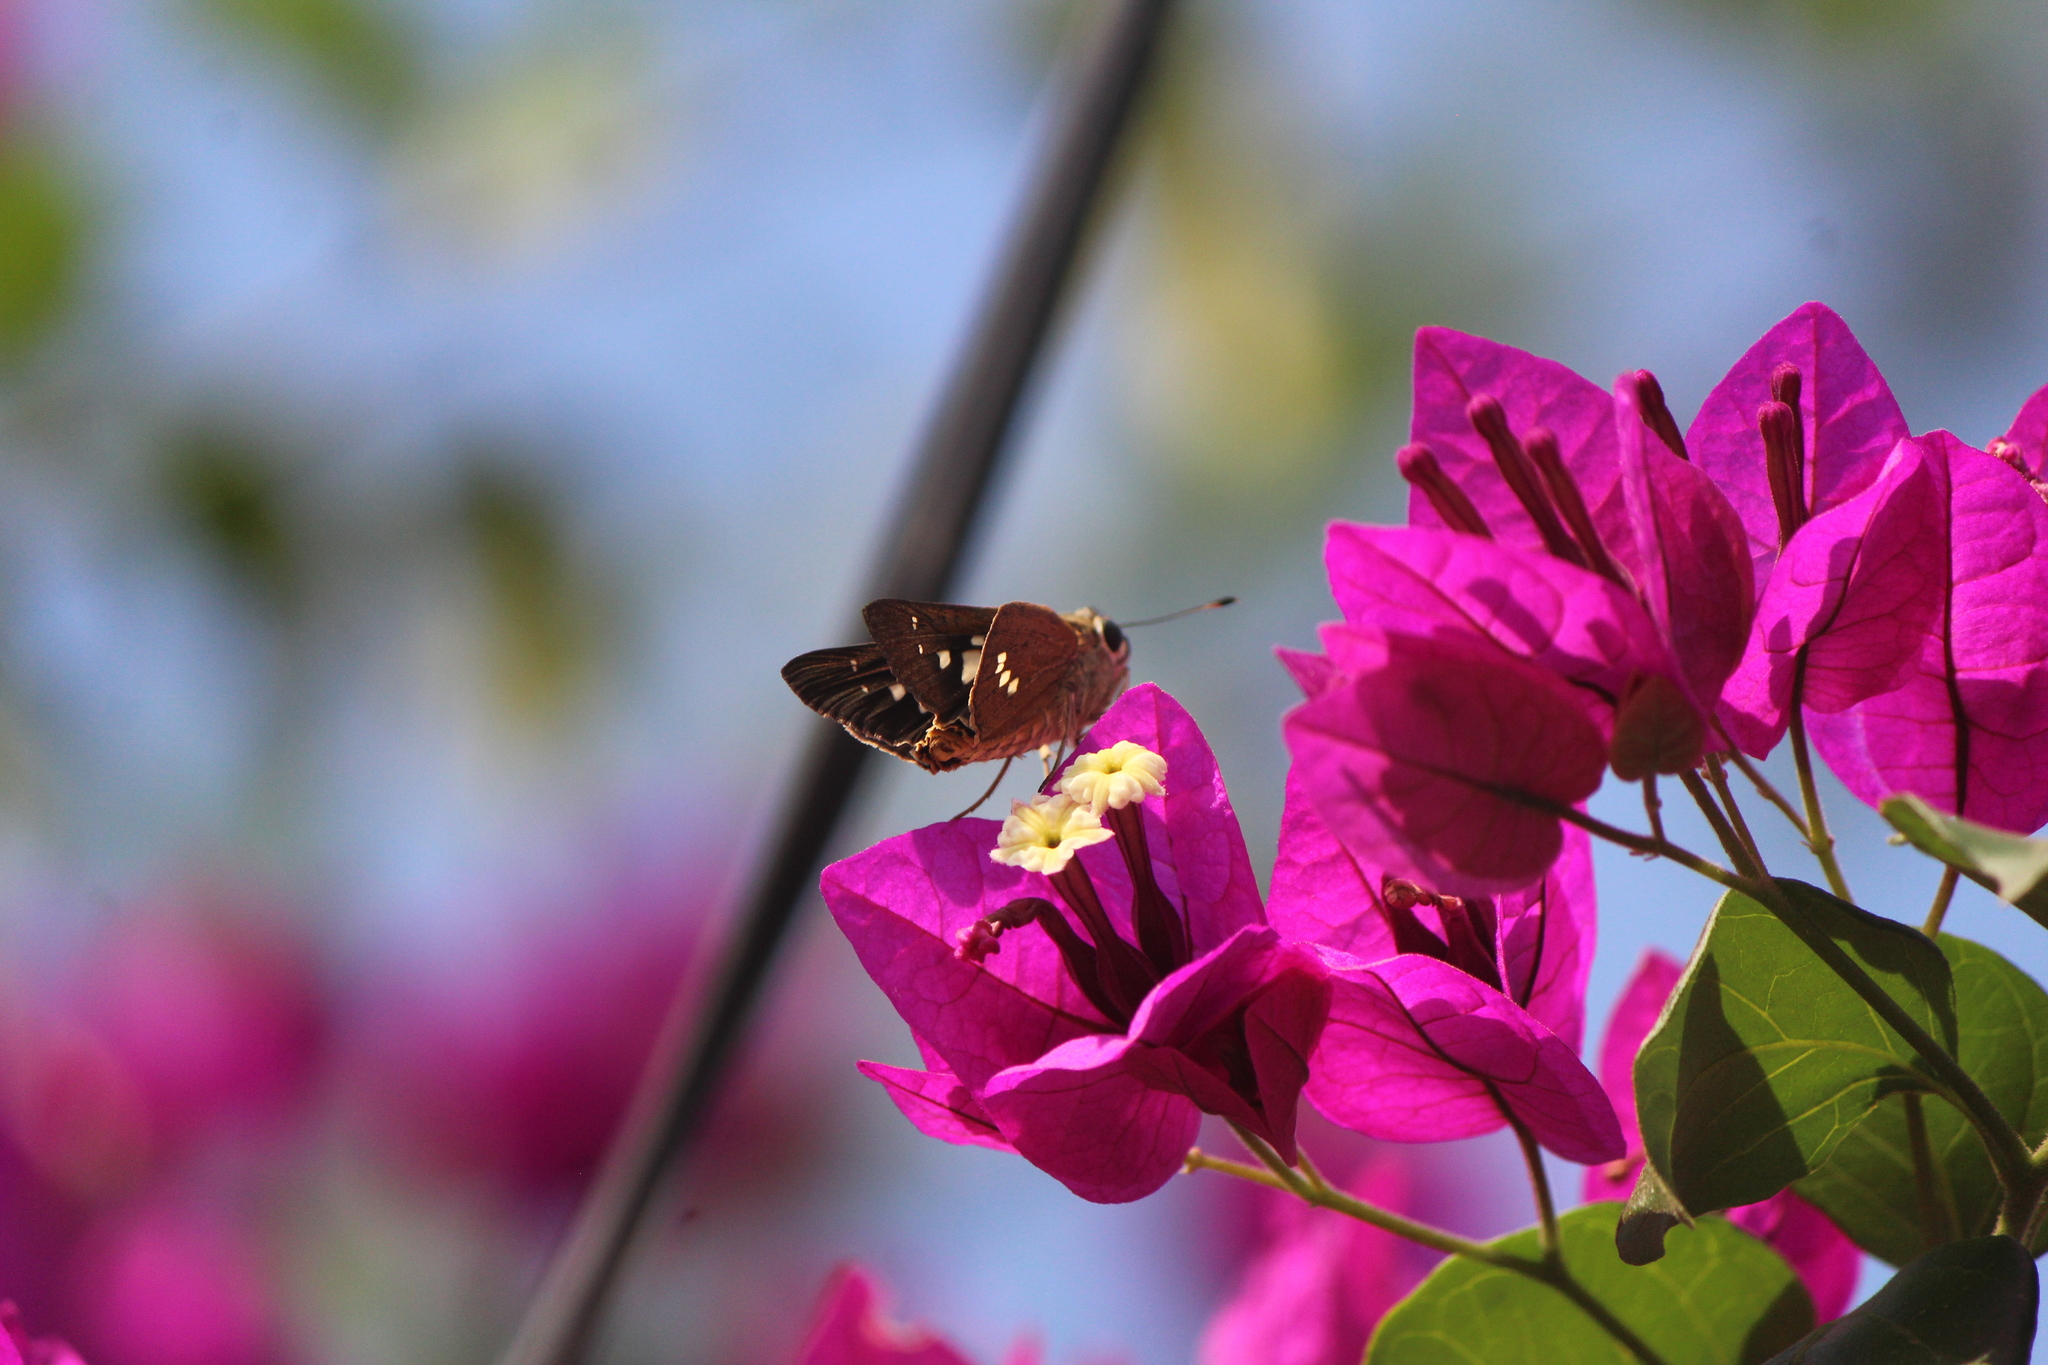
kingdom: Animalia
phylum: Arthropoda
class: Insecta
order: Lepidoptera
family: Hesperiidae
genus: Calpodes
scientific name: Calpodes ethlius
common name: Brazilian skipper
